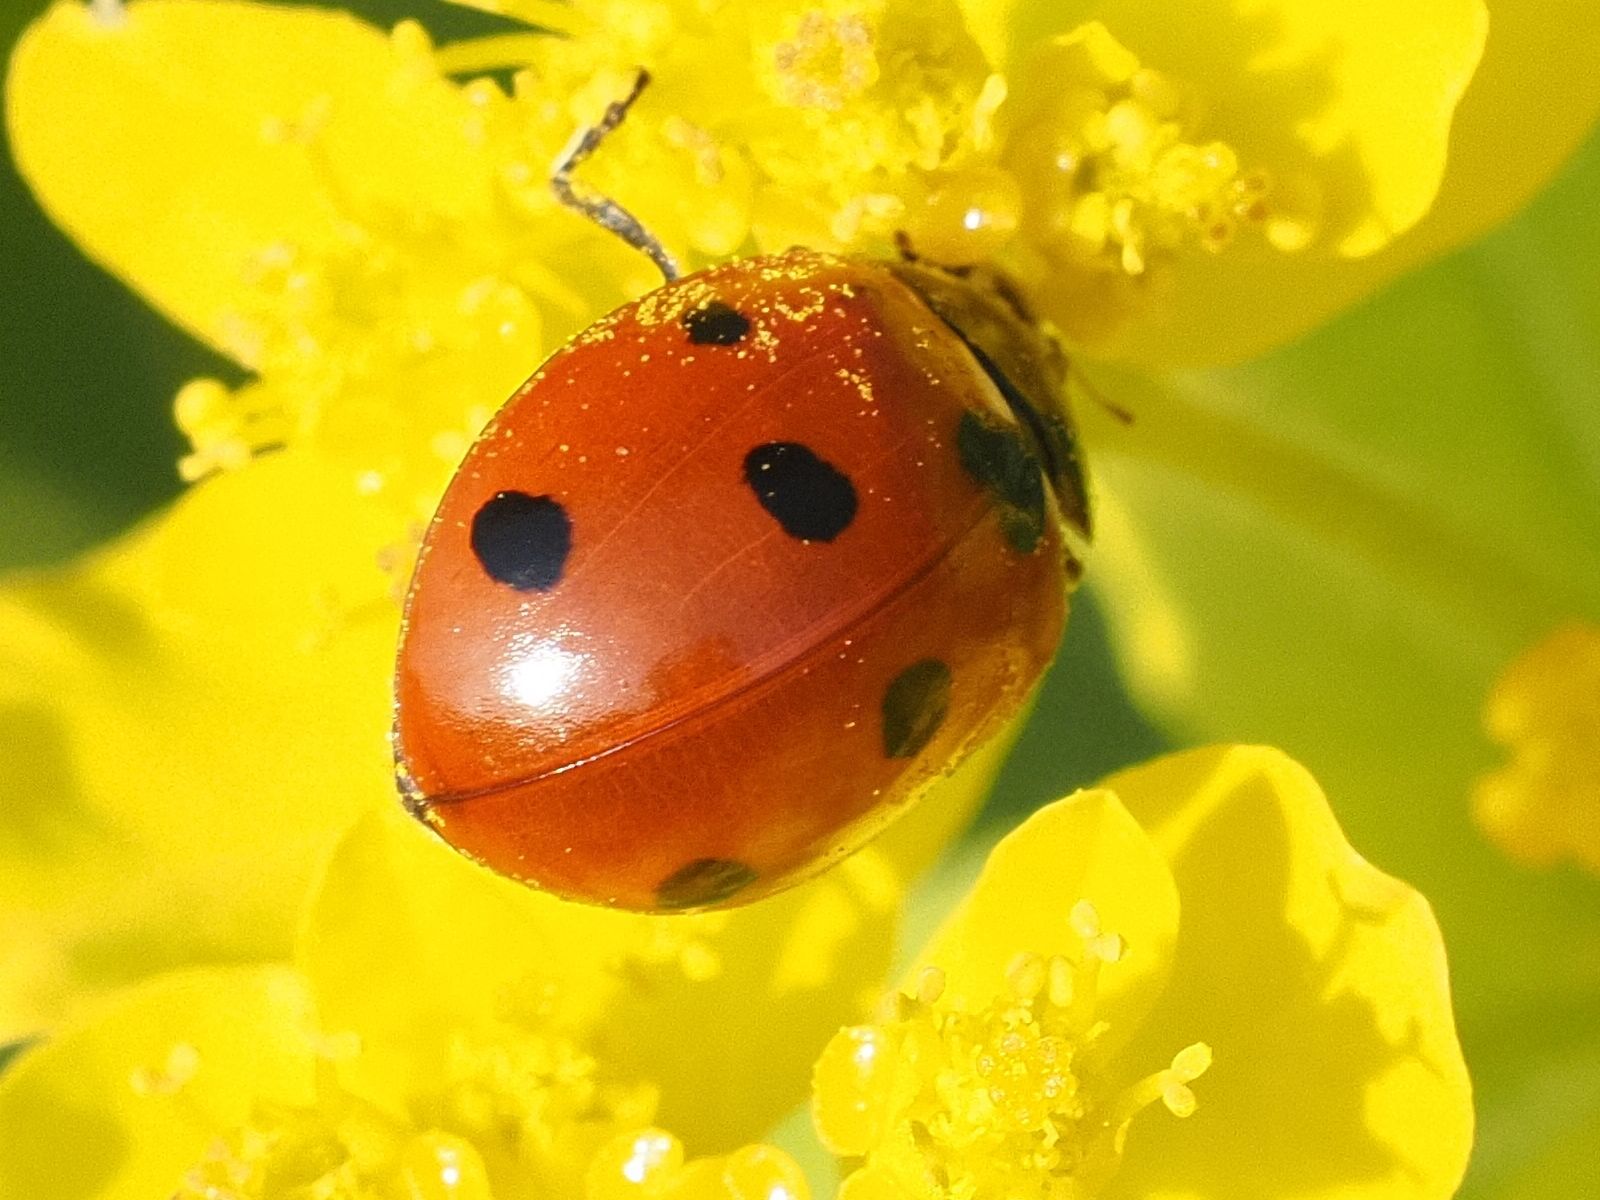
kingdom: Animalia
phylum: Arthropoda
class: Insecta
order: Coleoptera
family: Coccinellidae
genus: Coccinella
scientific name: Coccinella septempunctata
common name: Sevenspotted lady beetle
